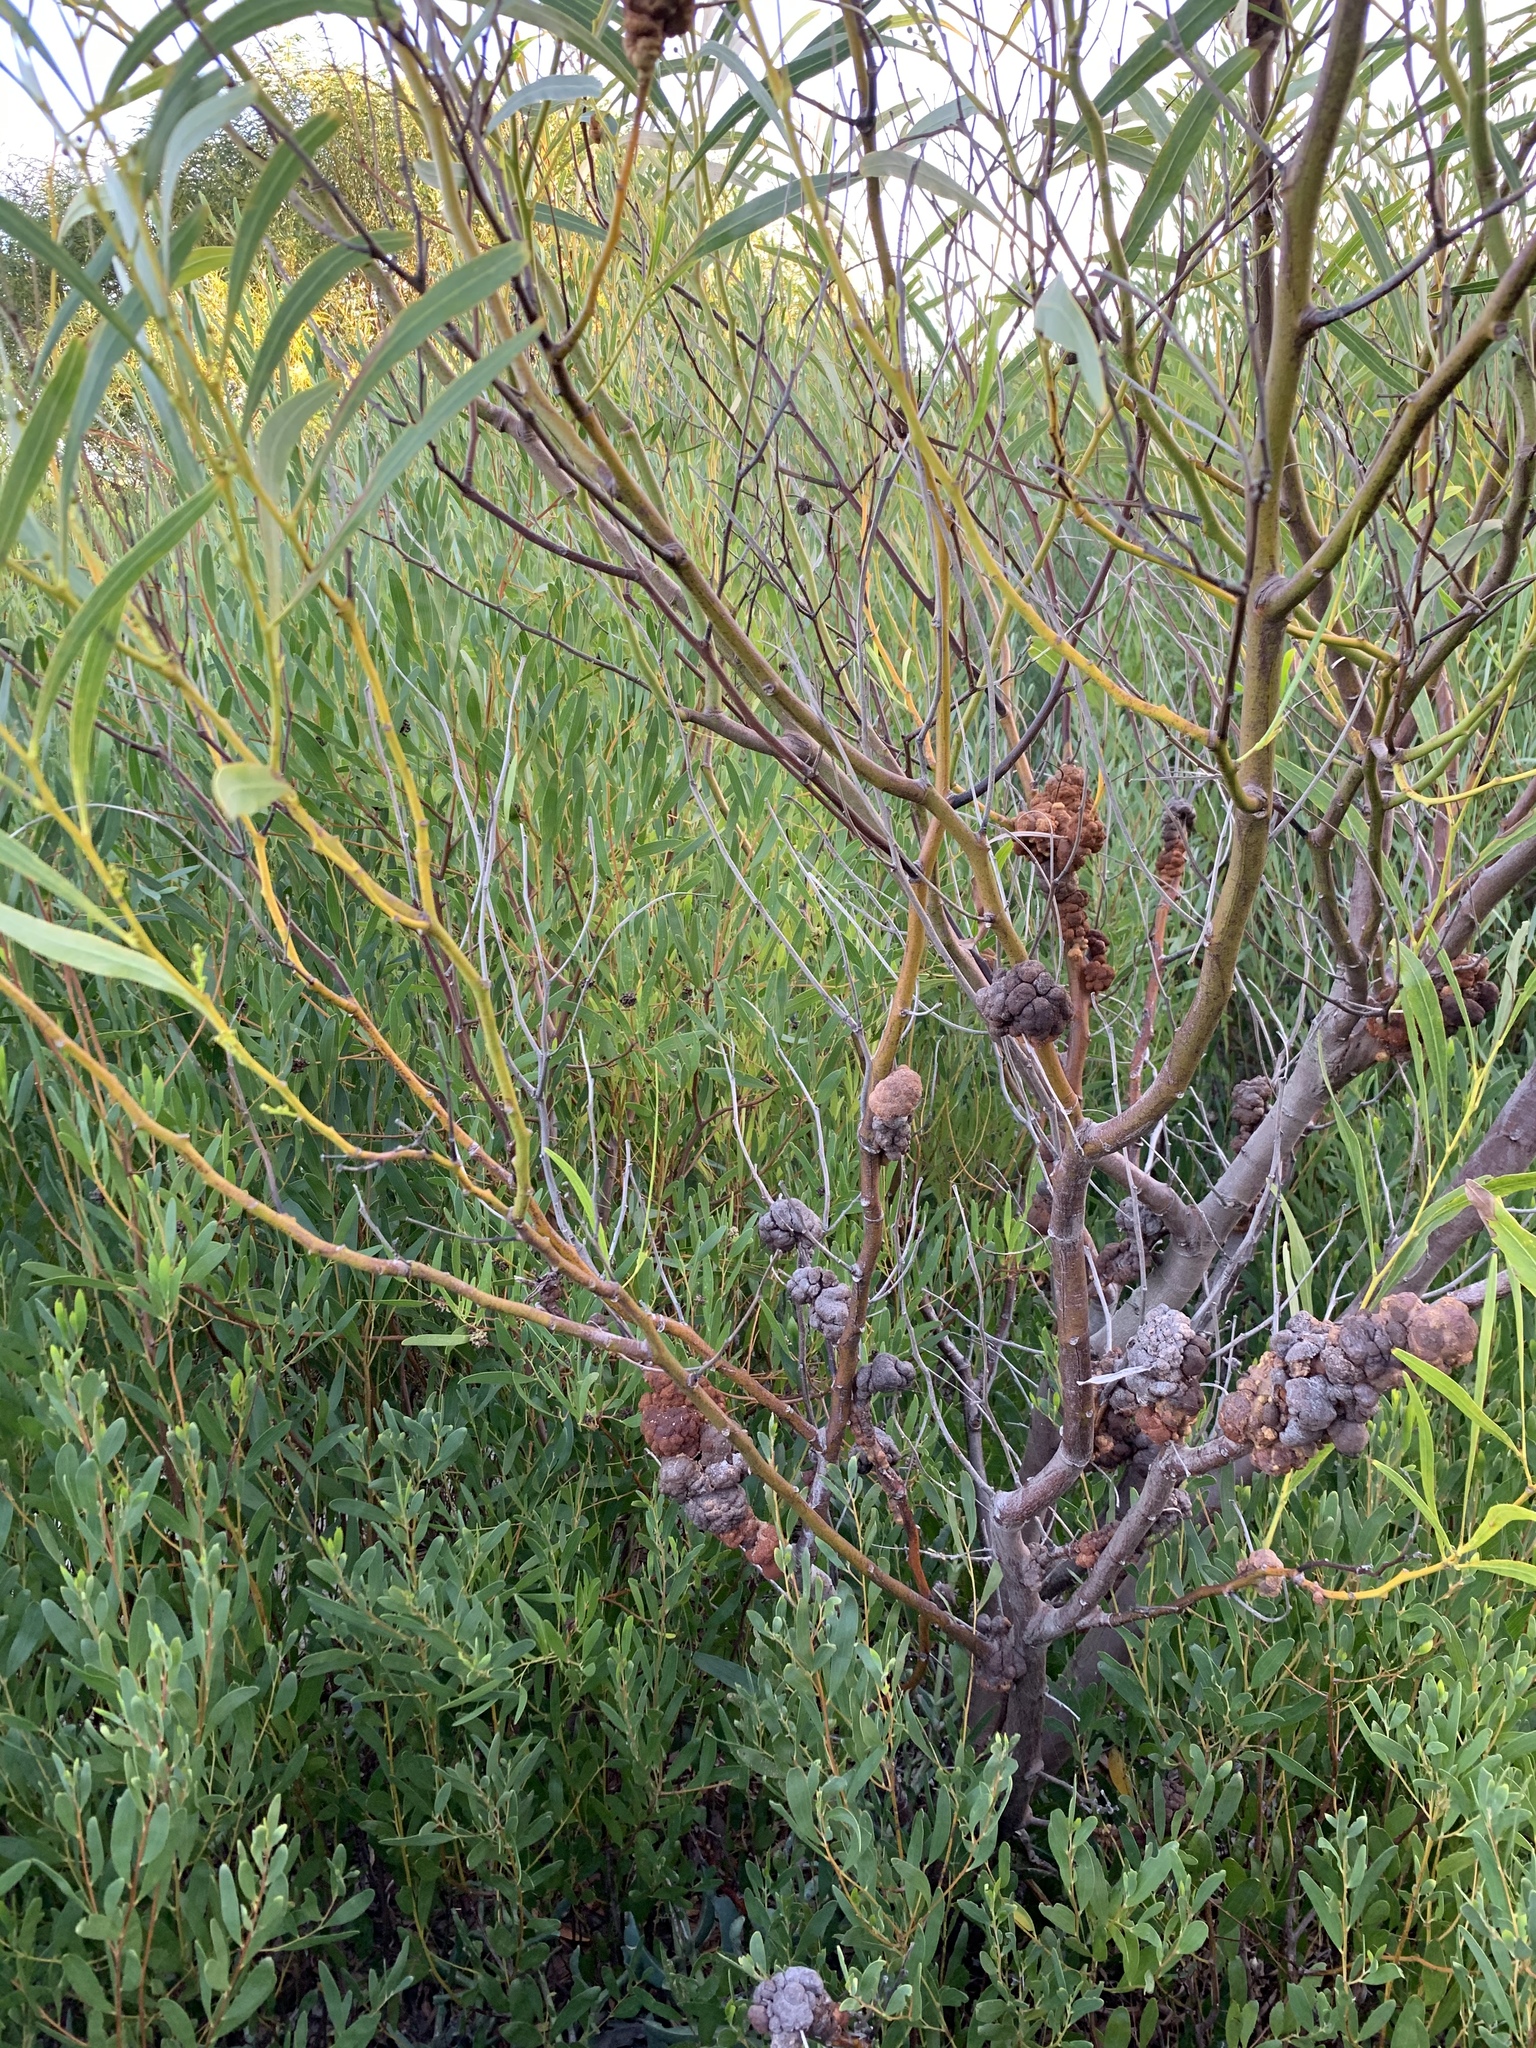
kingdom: Plantae
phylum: Tracheophyta
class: Magnoliopsida
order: Fabales
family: Fabaceae
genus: Acacia
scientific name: Acacia saligna
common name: Orange wattle
